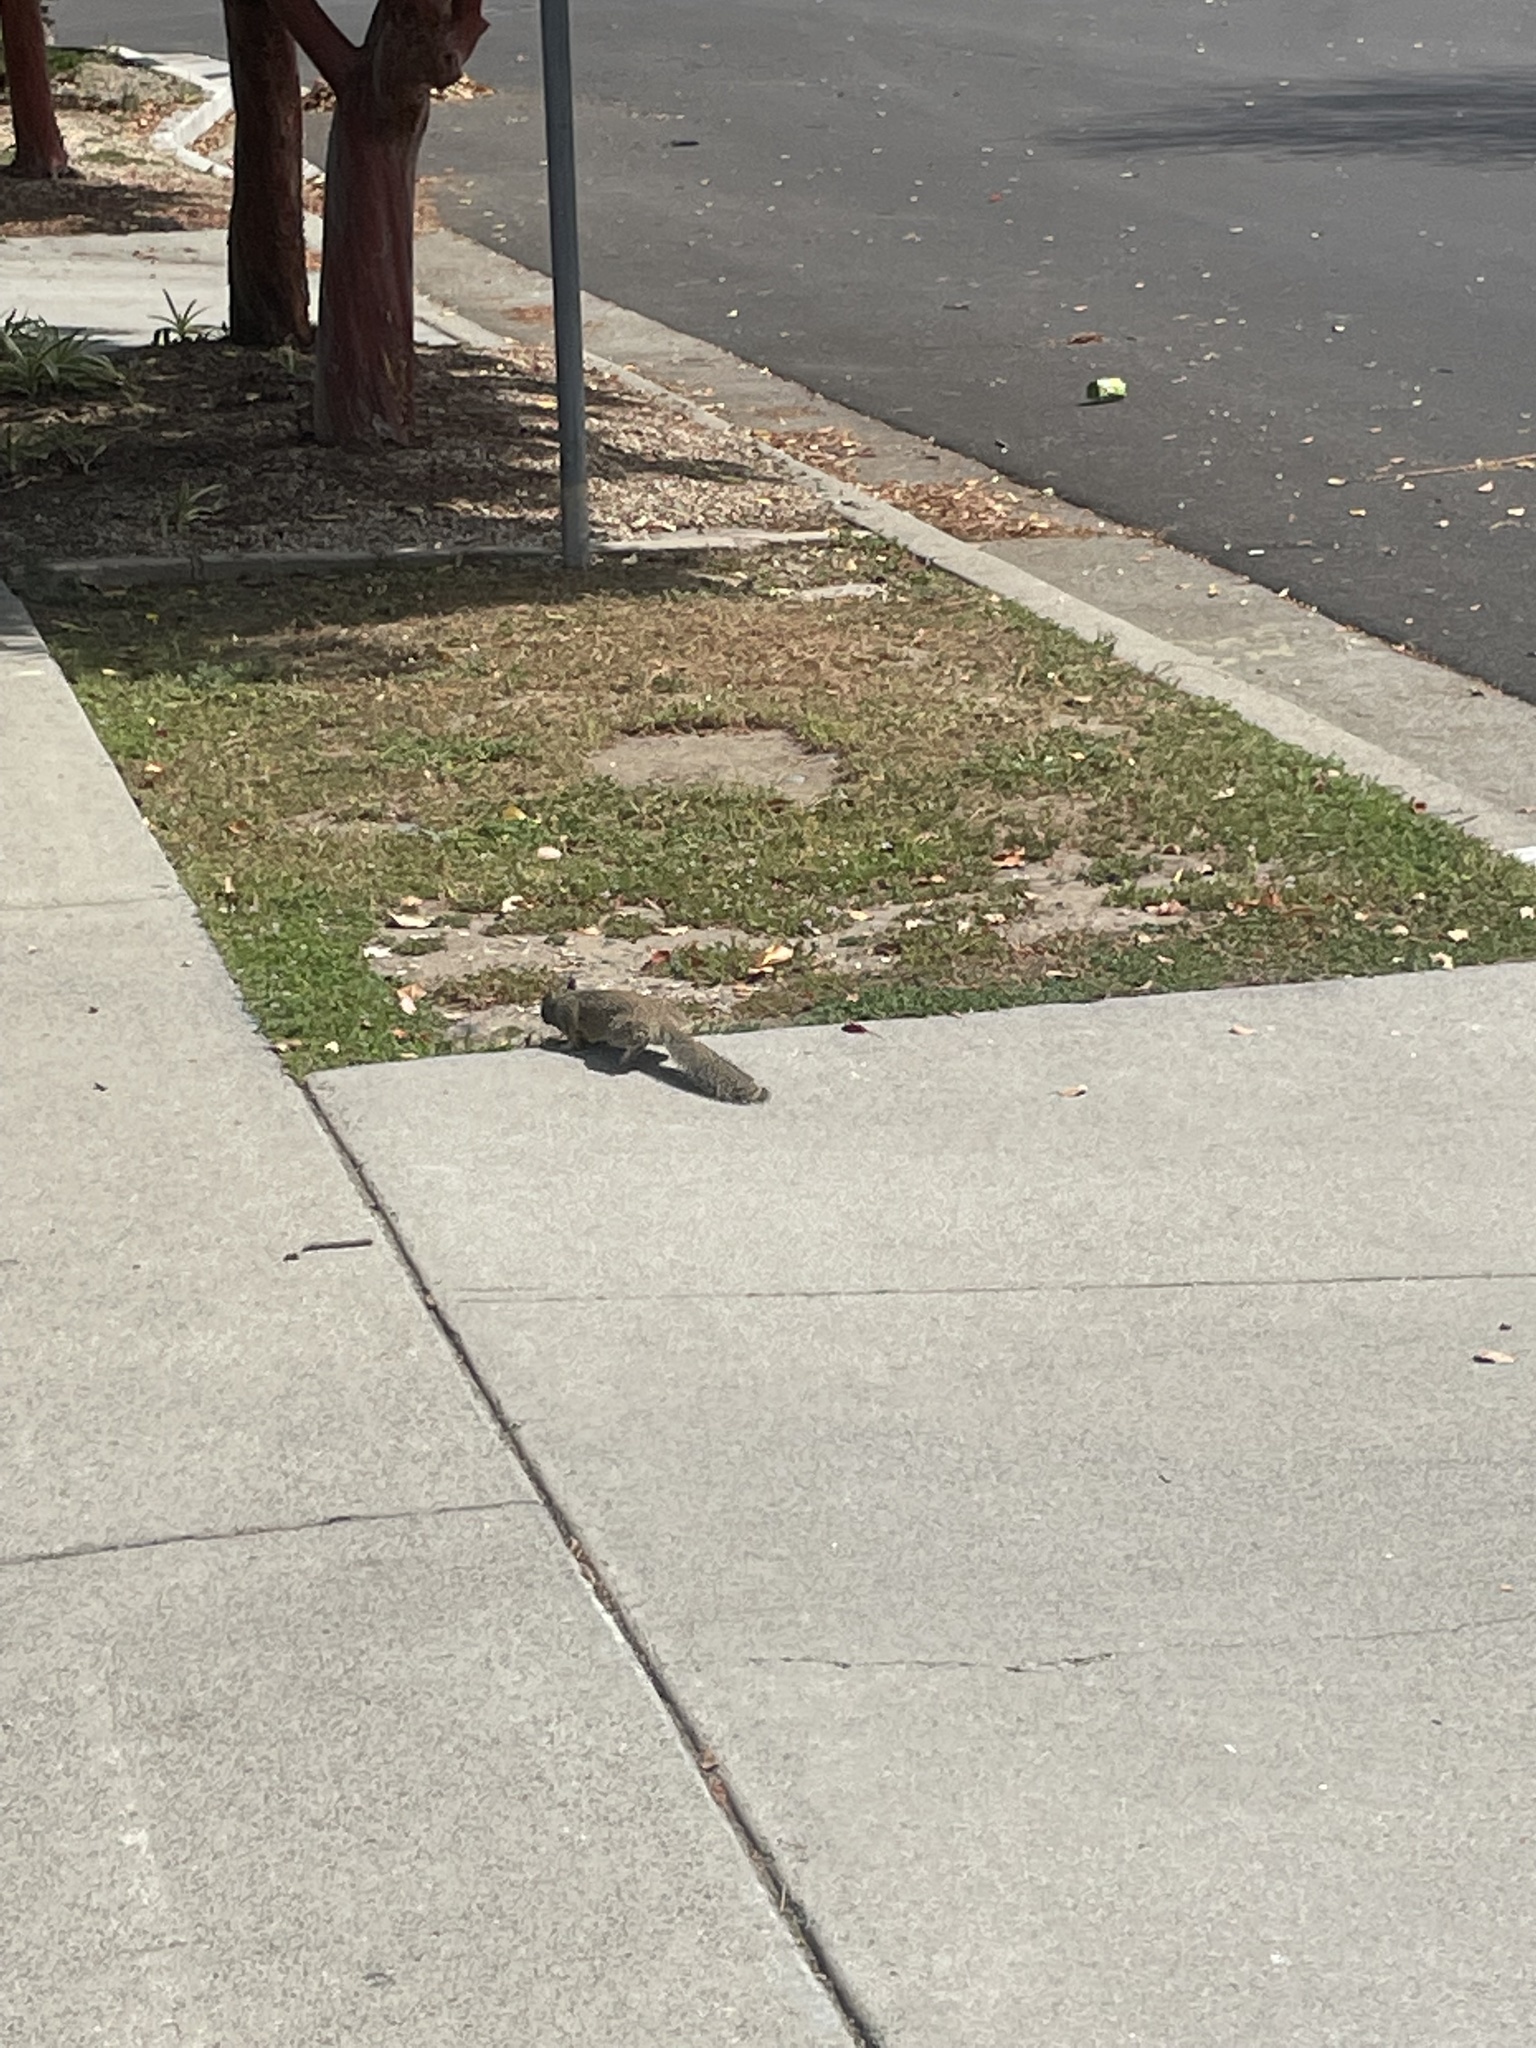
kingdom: Animalia
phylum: Chordata
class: Mammalia
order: Rodentia
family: Sciuridae
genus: Otospermophilus
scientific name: Otospermophilus beecheyi
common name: California ground squirrel
